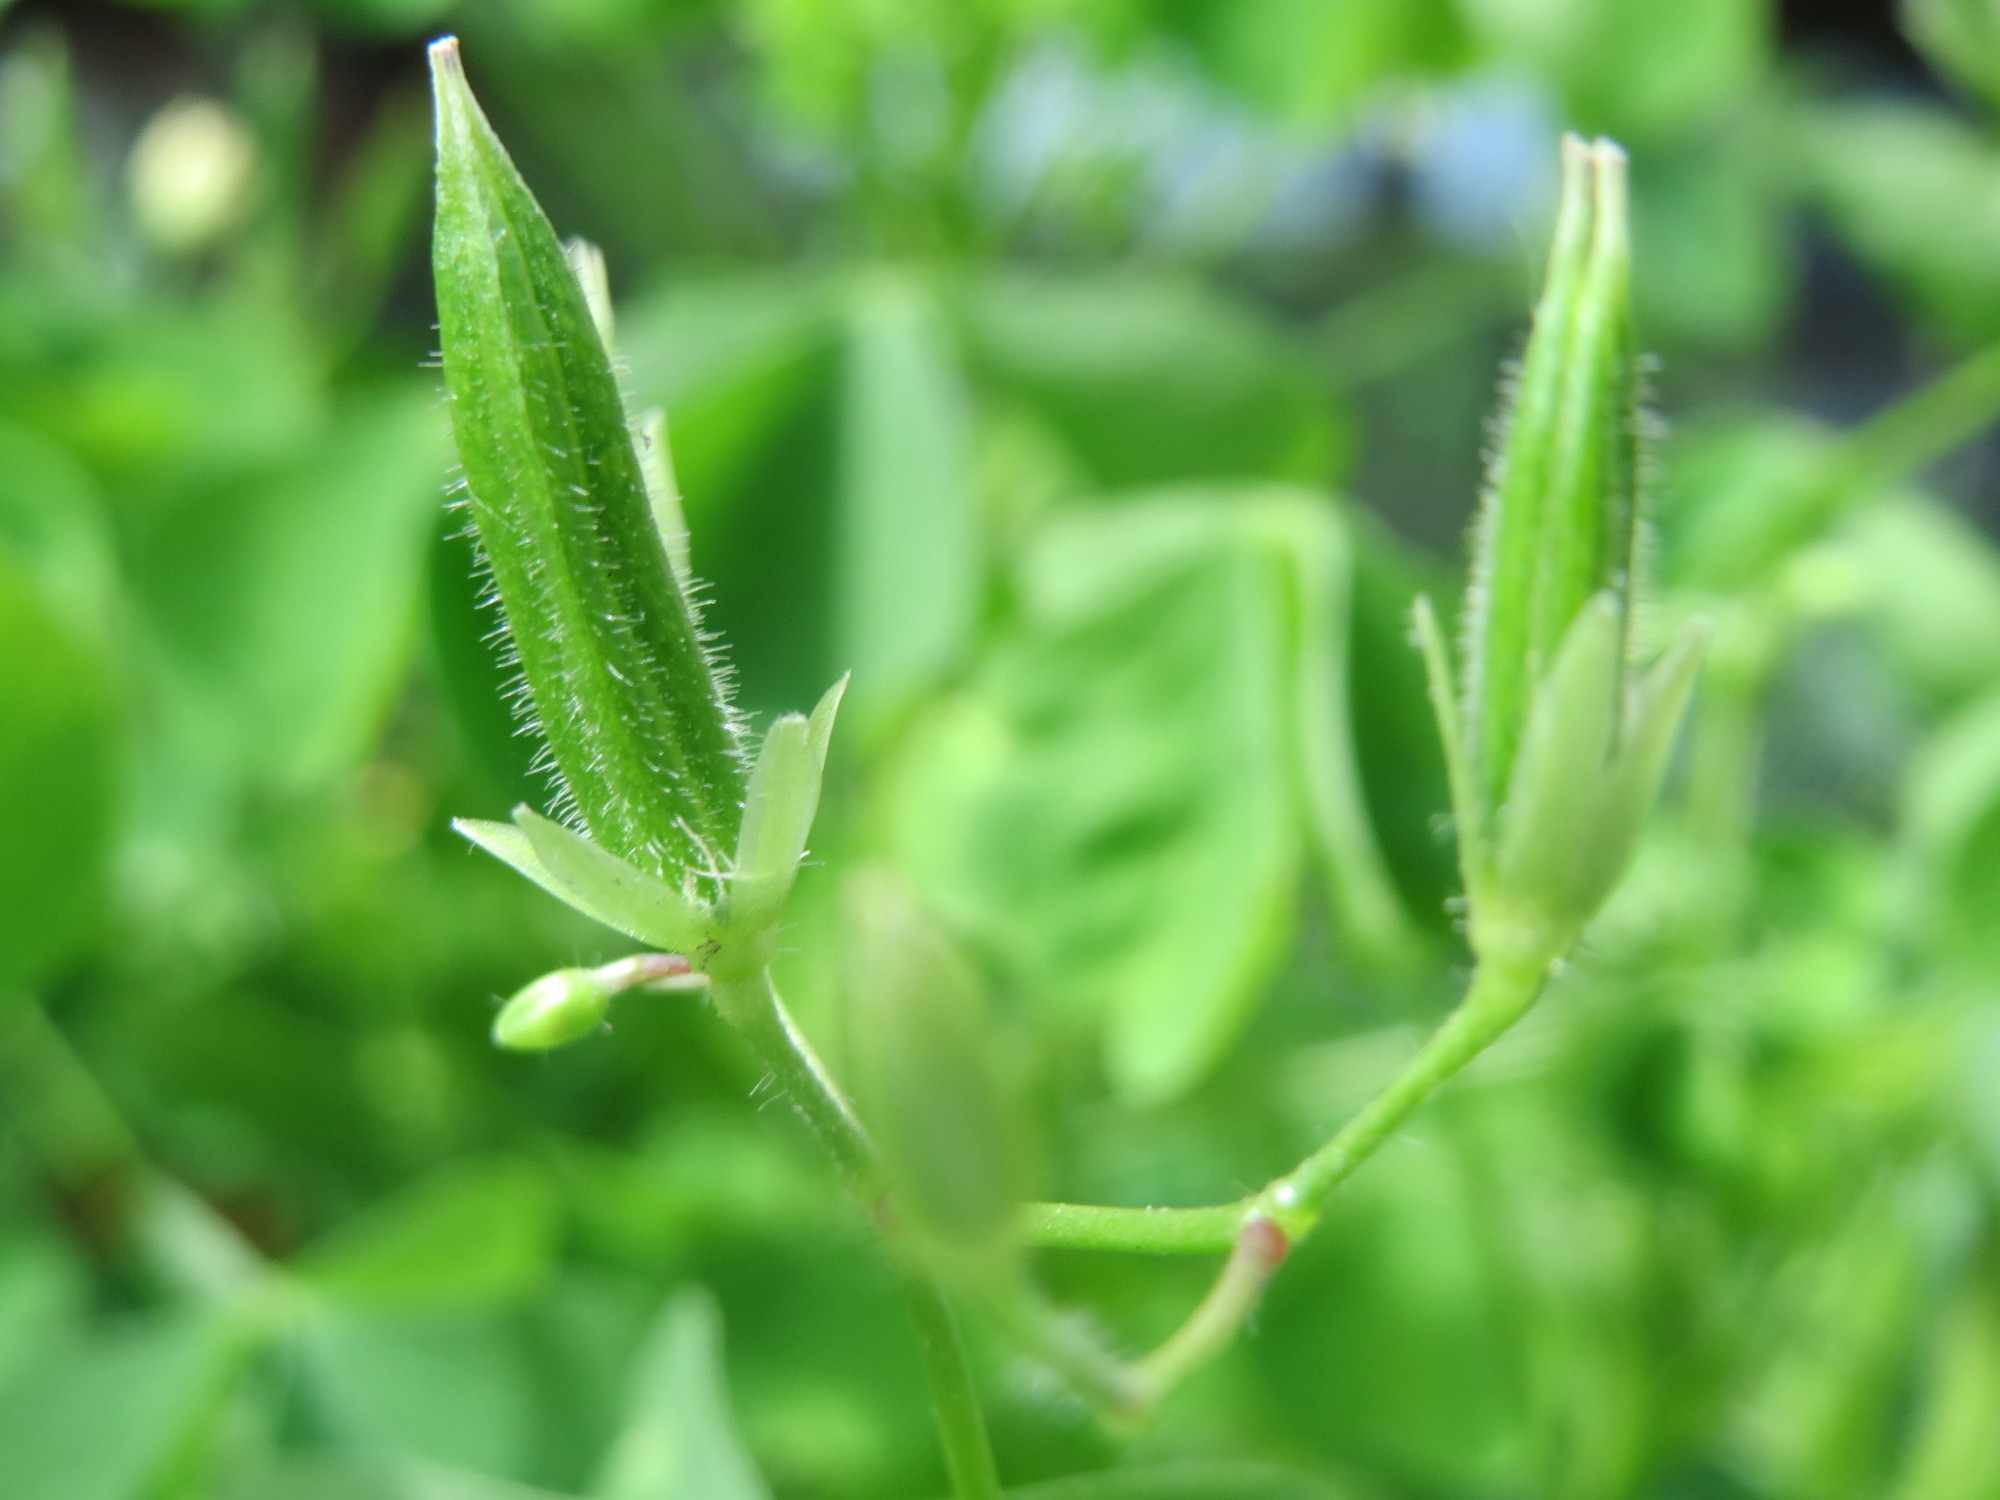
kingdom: Plantae
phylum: Tracheophyta
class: Magnoliopsida
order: Oxalidales
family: Oxalidaceae
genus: Oxalis
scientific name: Oxalis stricta
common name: Upright yellow-sorrel
